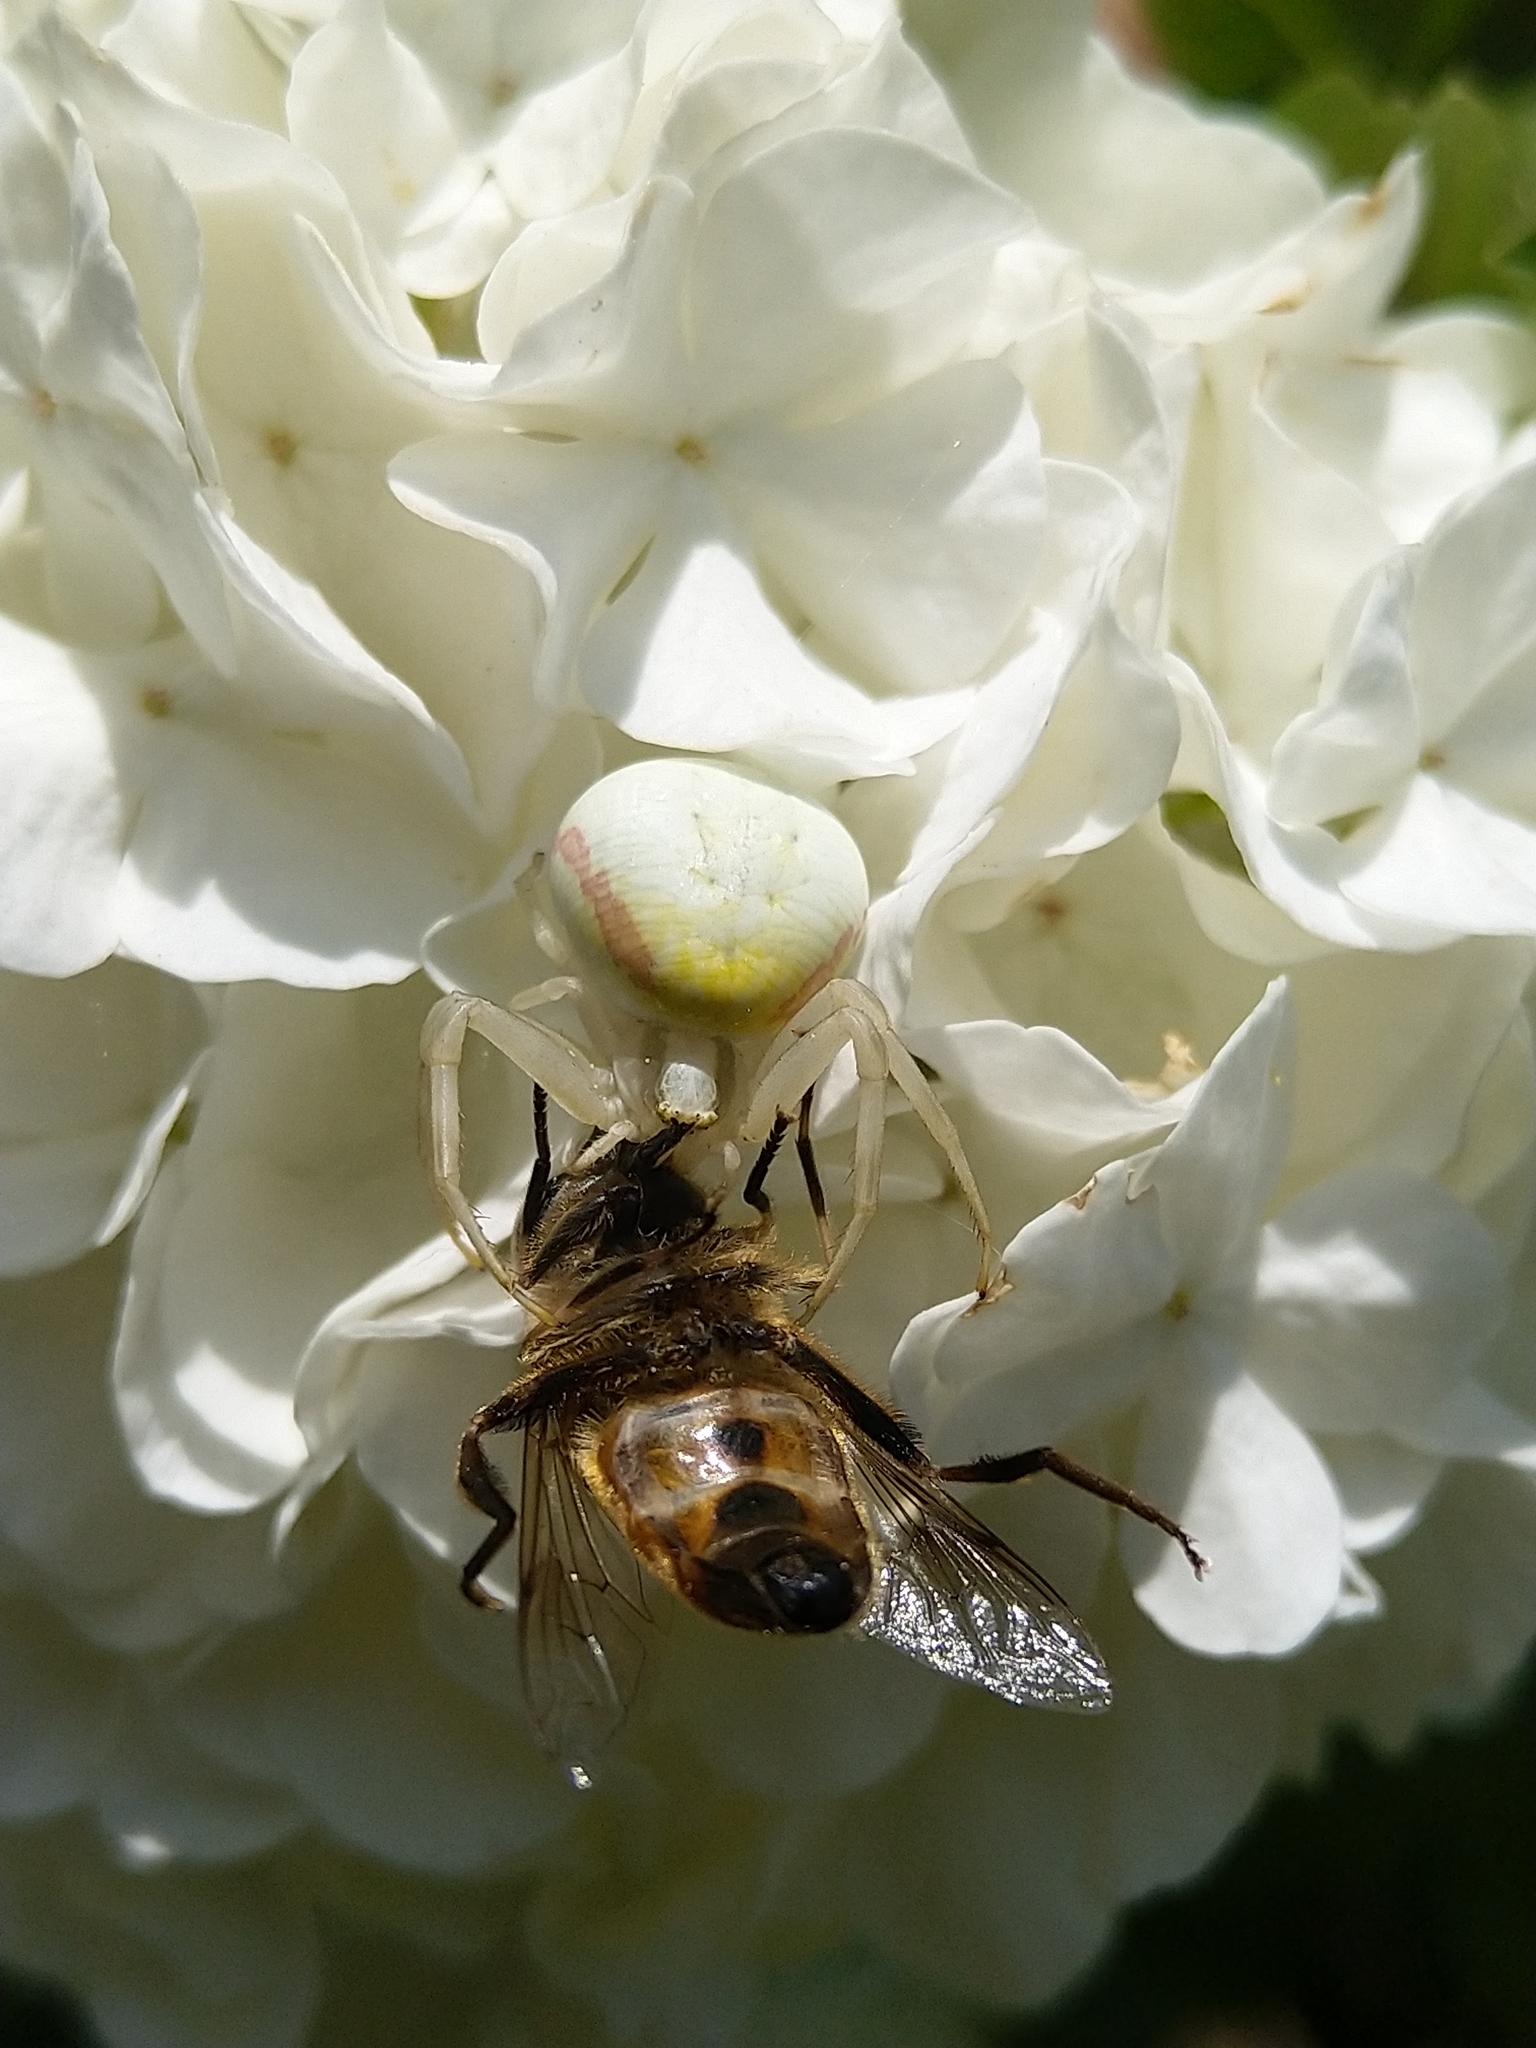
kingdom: Animalia
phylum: Arthropoda
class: Arachnida
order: Araneae
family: Thomisidae
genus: Misumena
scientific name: Misumena vatia
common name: Goldenrod crab spider
